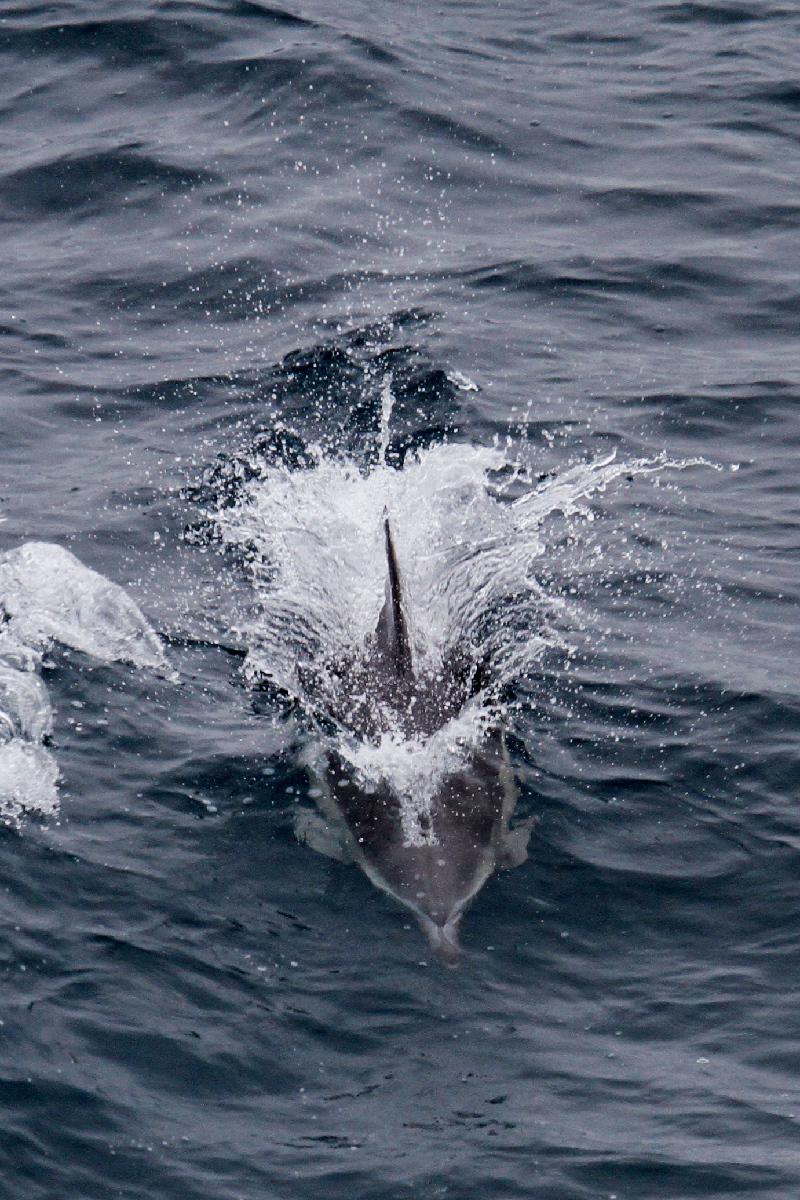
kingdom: Animalia
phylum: Chordata
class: Mammalia
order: Cetacea
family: Delphinidae
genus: Delphinus
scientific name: Delphinus delphis
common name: Common dolphin
